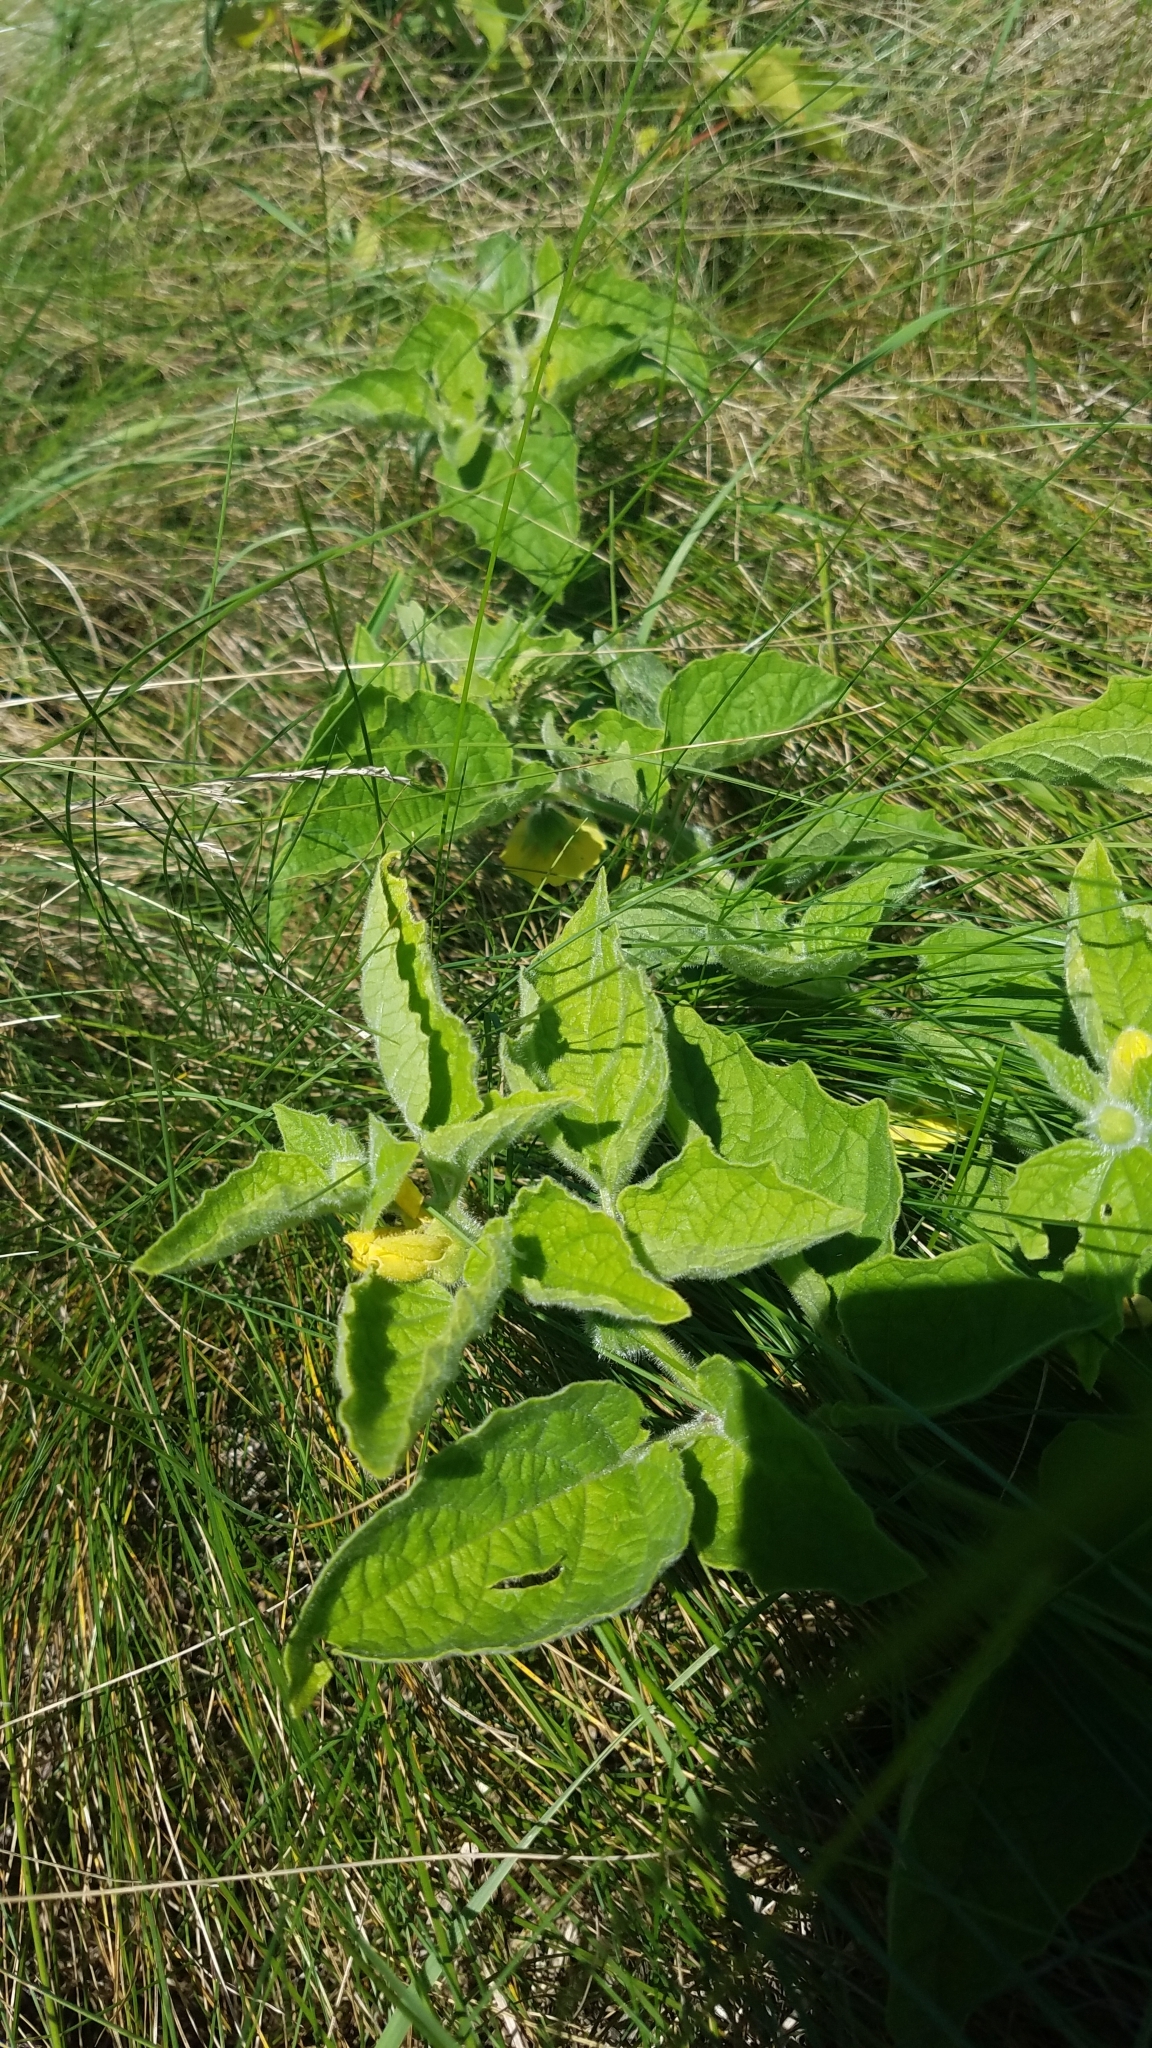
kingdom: Plantae
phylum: Tracheophyta
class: Magnoliopsida
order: Solanales
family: Solanaceae
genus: Physalis
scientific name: Physalis heterophylla
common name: Clammy ground-cherry
